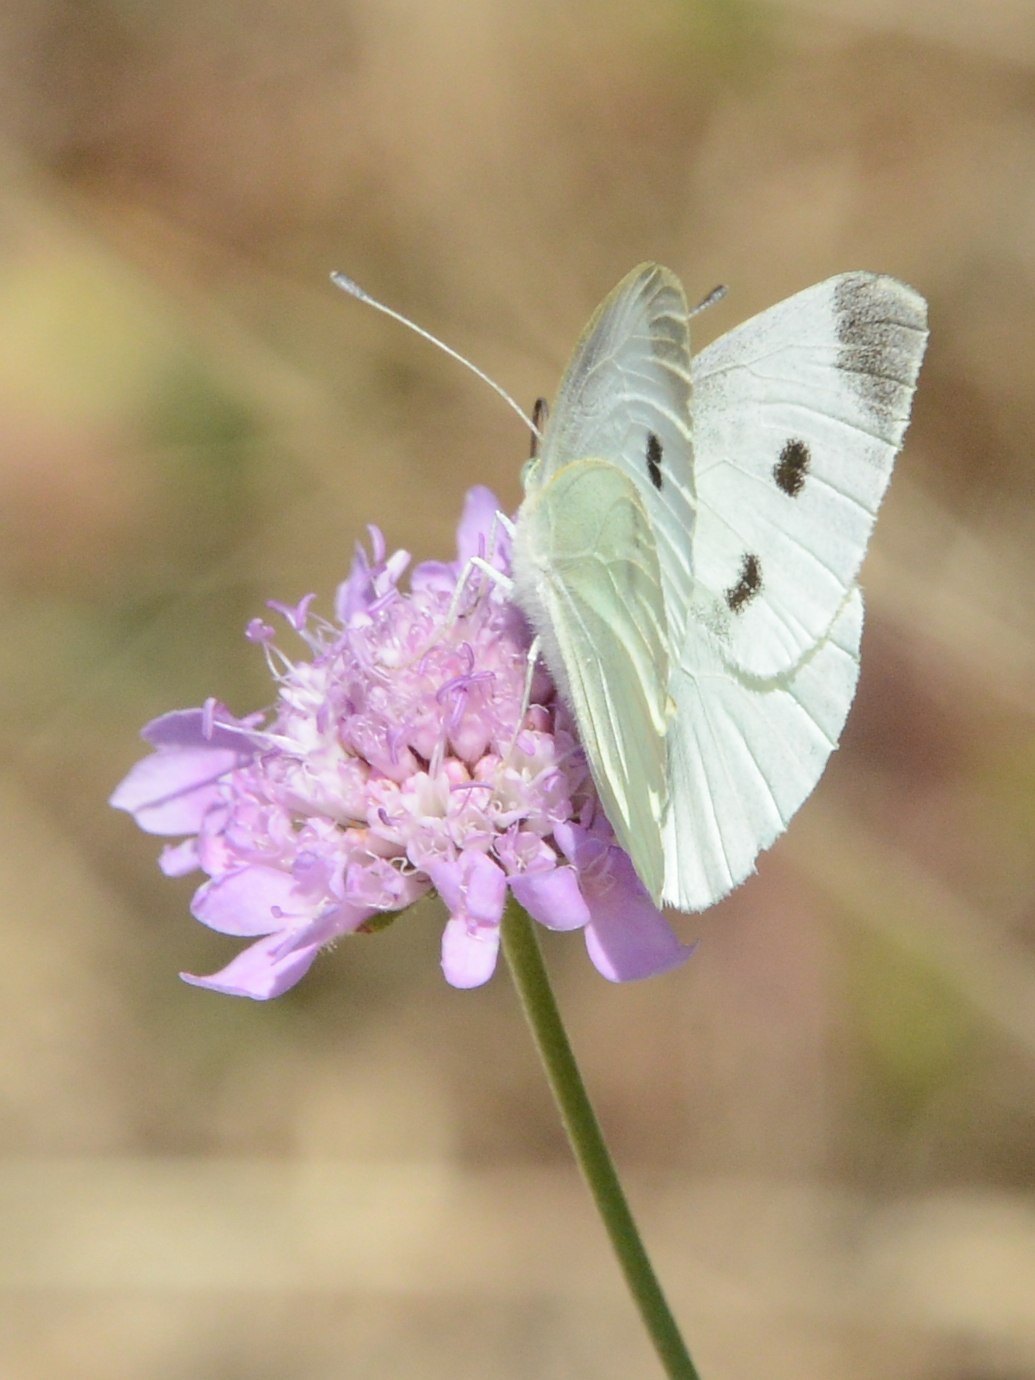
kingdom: Animalia
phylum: Arthropoda
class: Insecta
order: Lepidoptera
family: Pieridae
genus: Pieris
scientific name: Pieris rapae
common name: Small white
